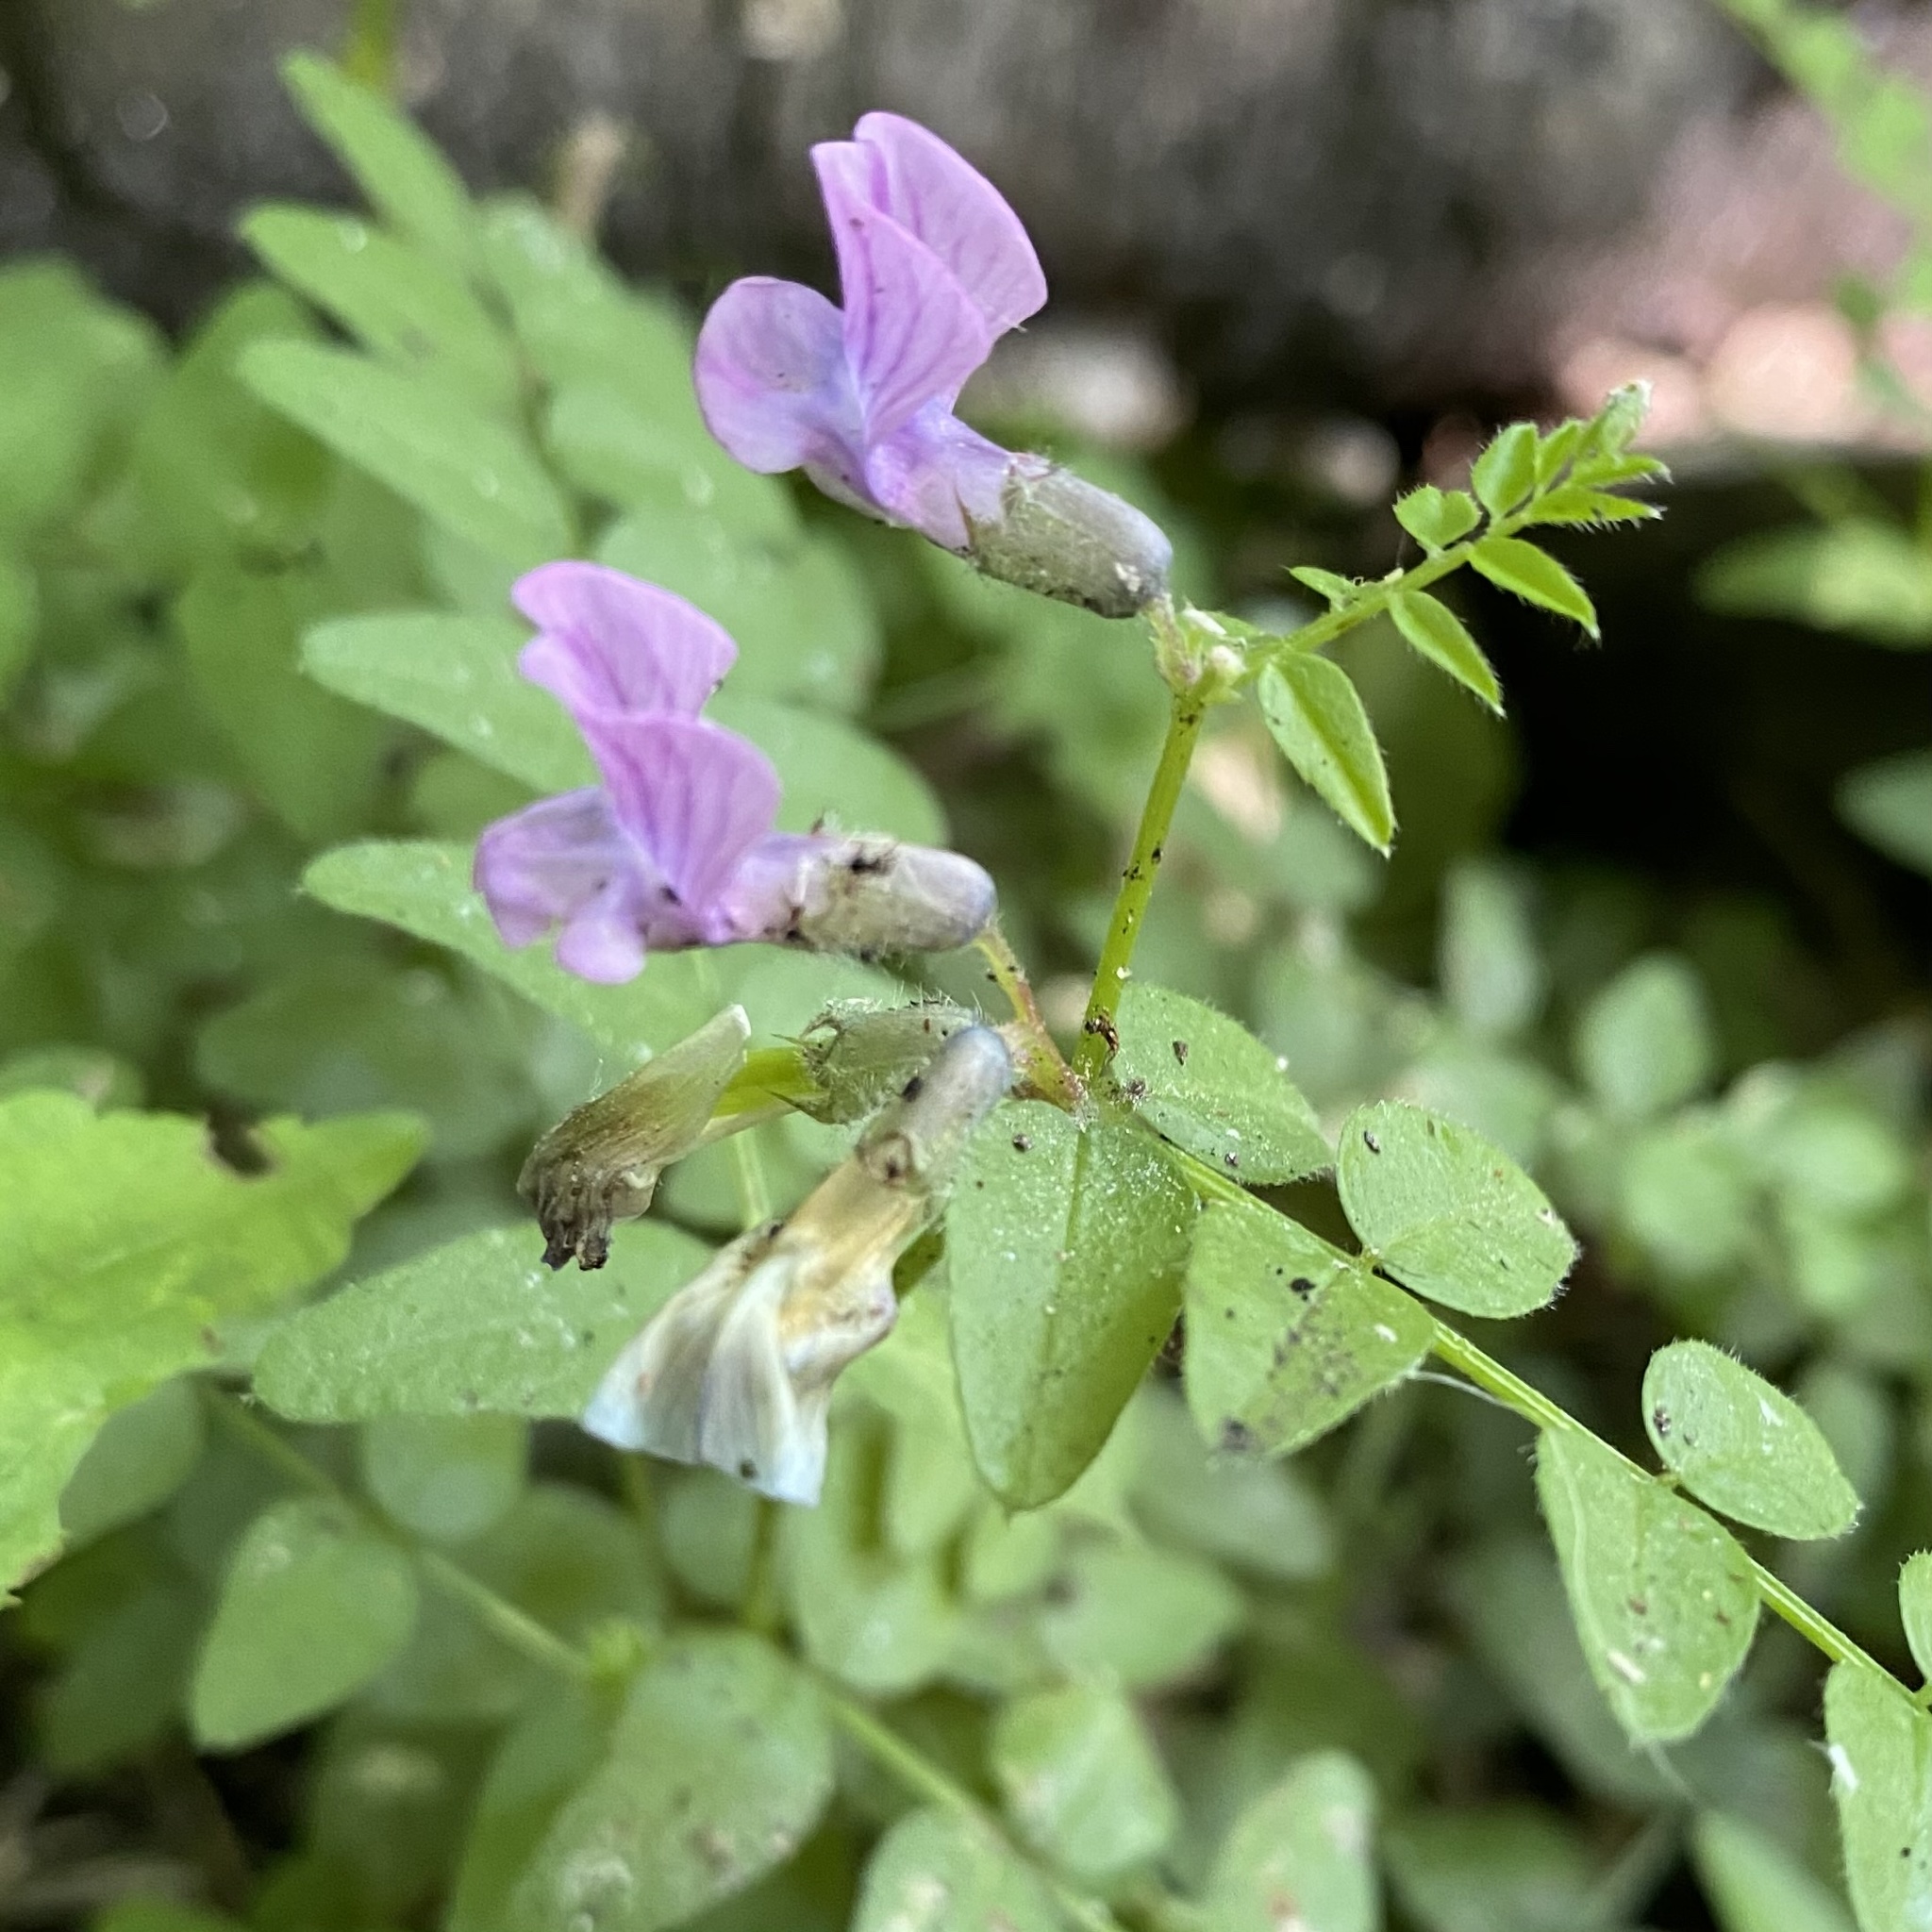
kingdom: Plantae
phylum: Tracheophyta
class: Magnoliopsida
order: Fabales
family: Fabaceae
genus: Vicia
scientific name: Vicia sepium
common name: Bush vetch
